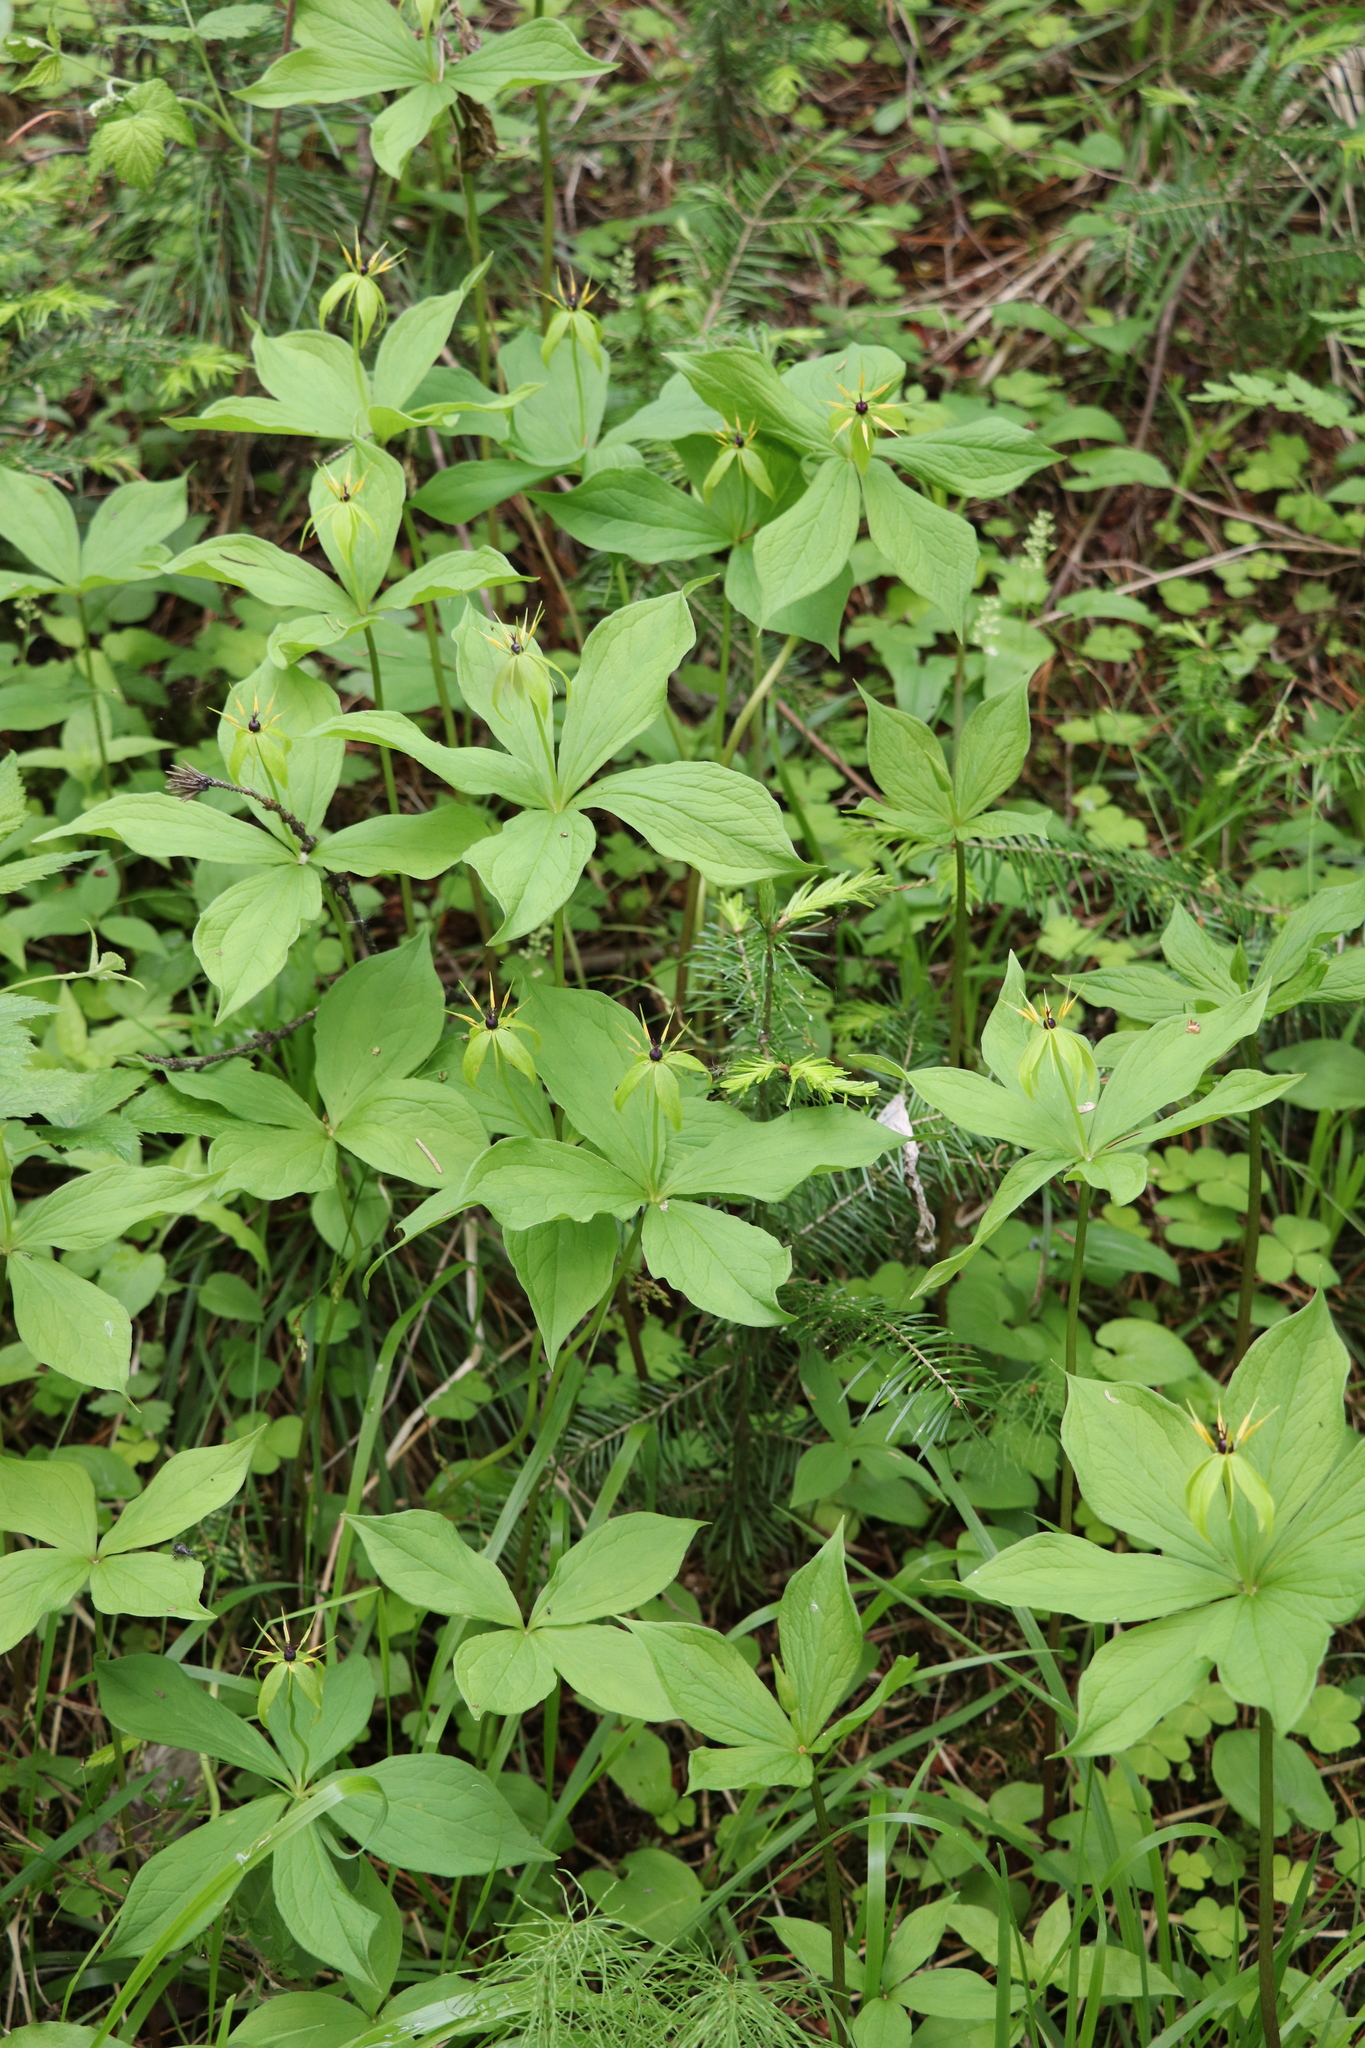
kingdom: Plantae
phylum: Tracheophyta
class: Liliopsida
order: Liliales
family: Melanthiaceae
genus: Paris
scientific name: Paris quadrifolia
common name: Herb-paris
